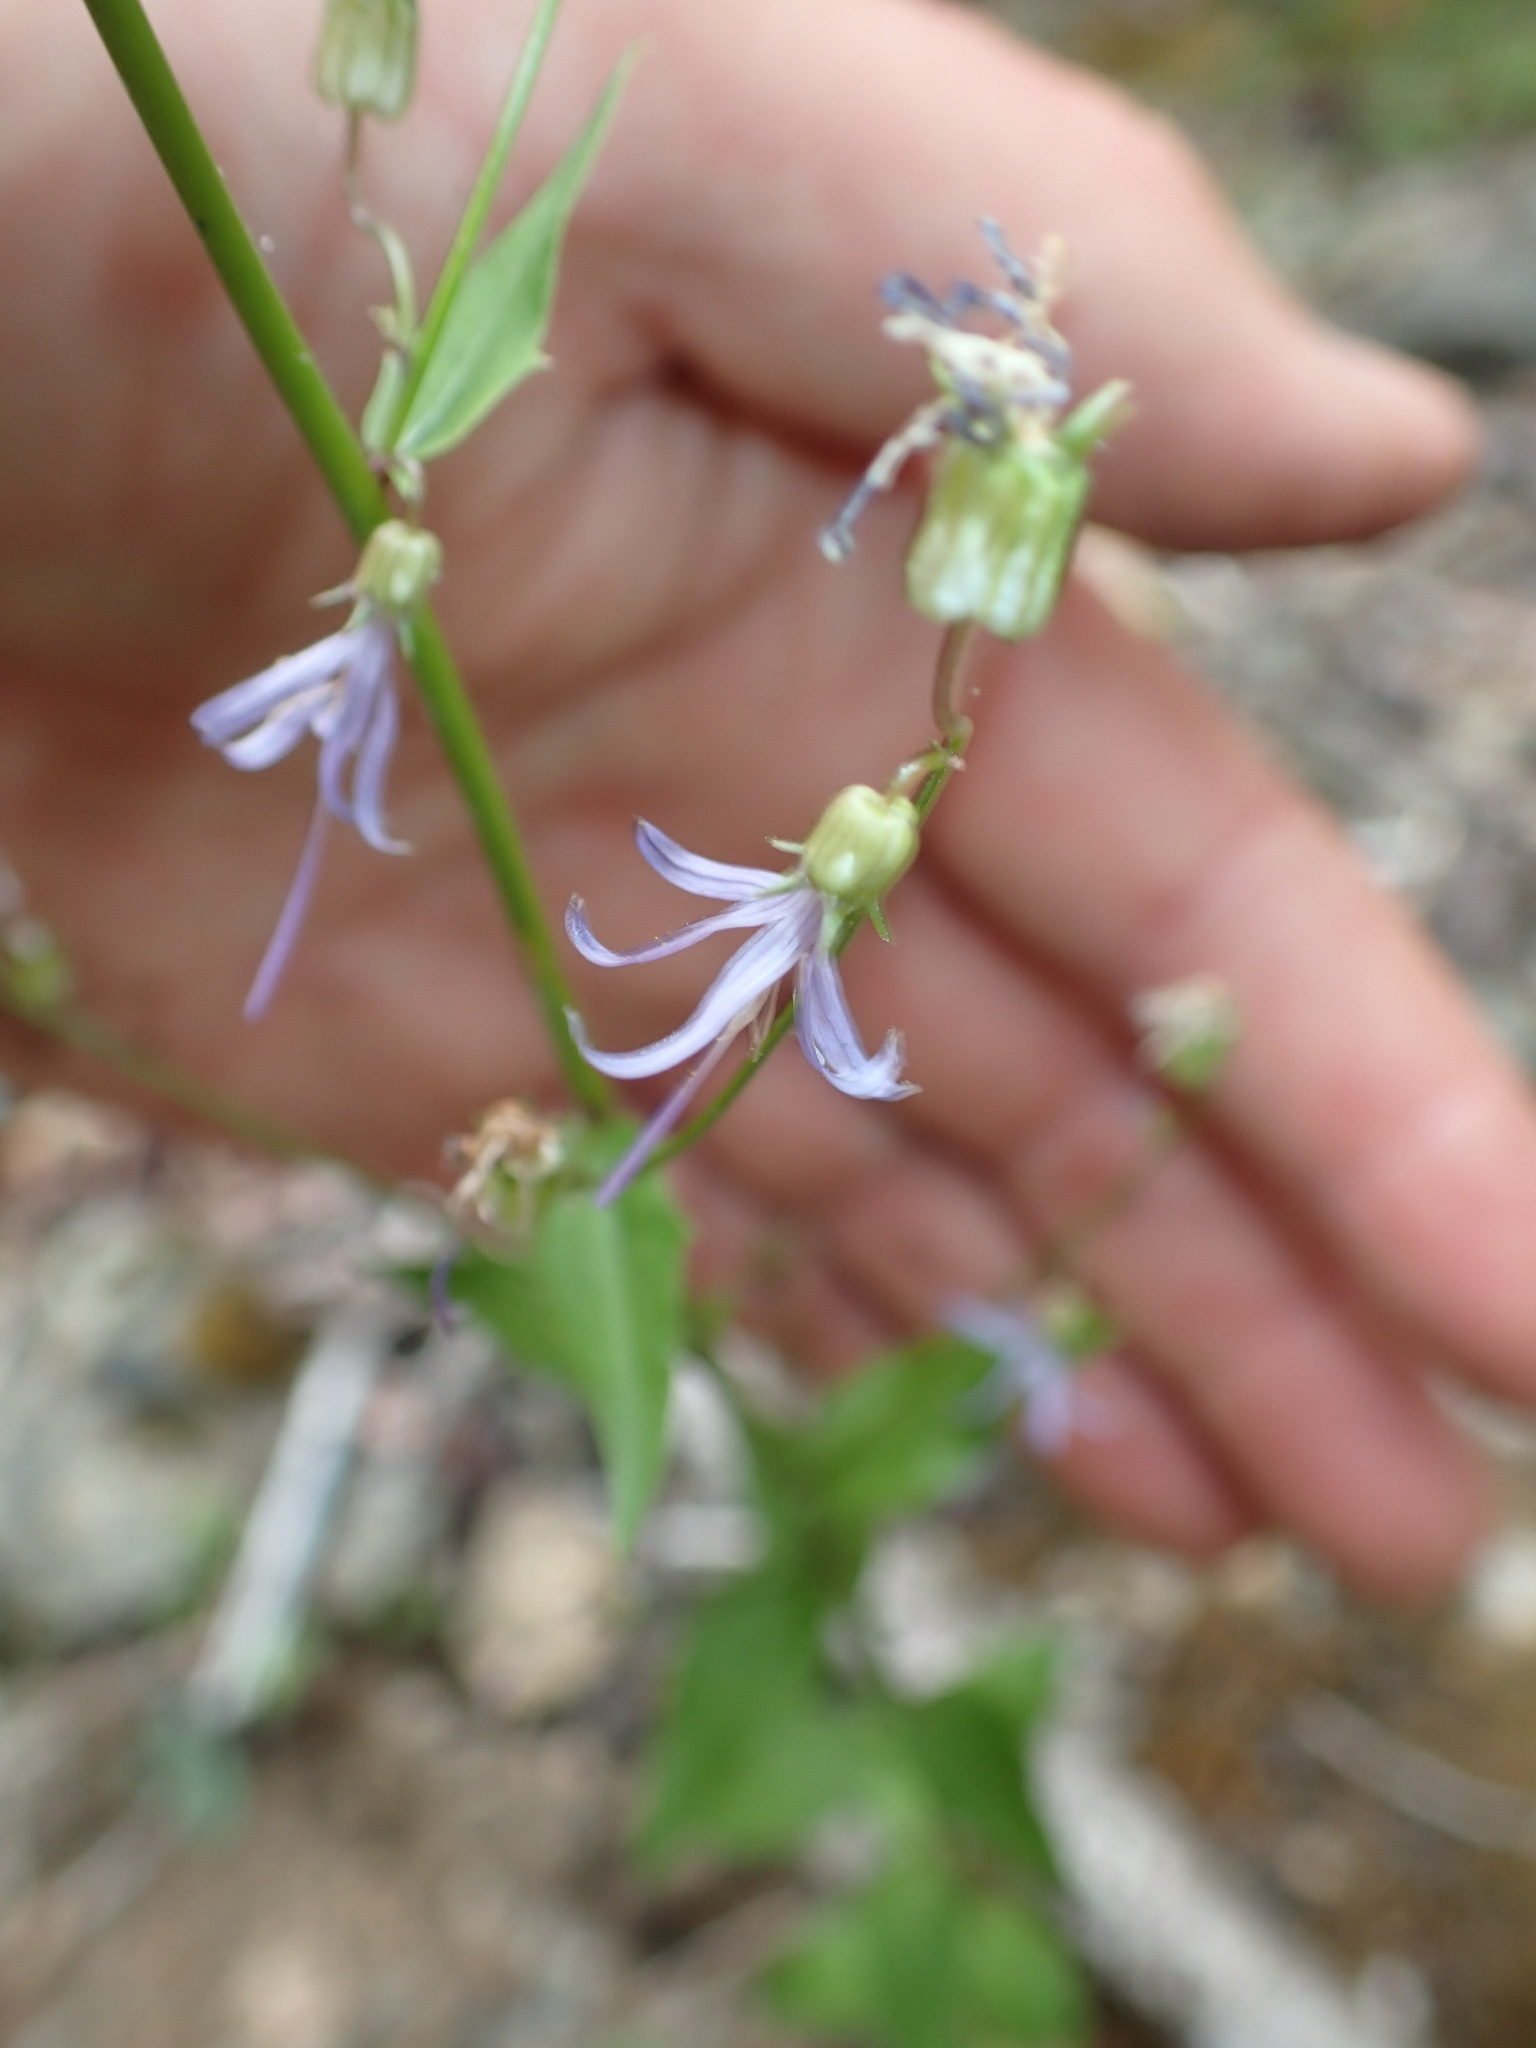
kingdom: Plantae
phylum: Tracheophyta
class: Magnoliopsida
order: Asterales
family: Campanulaceae
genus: Smithiastrum
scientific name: Smithiastrum prenanthoides
